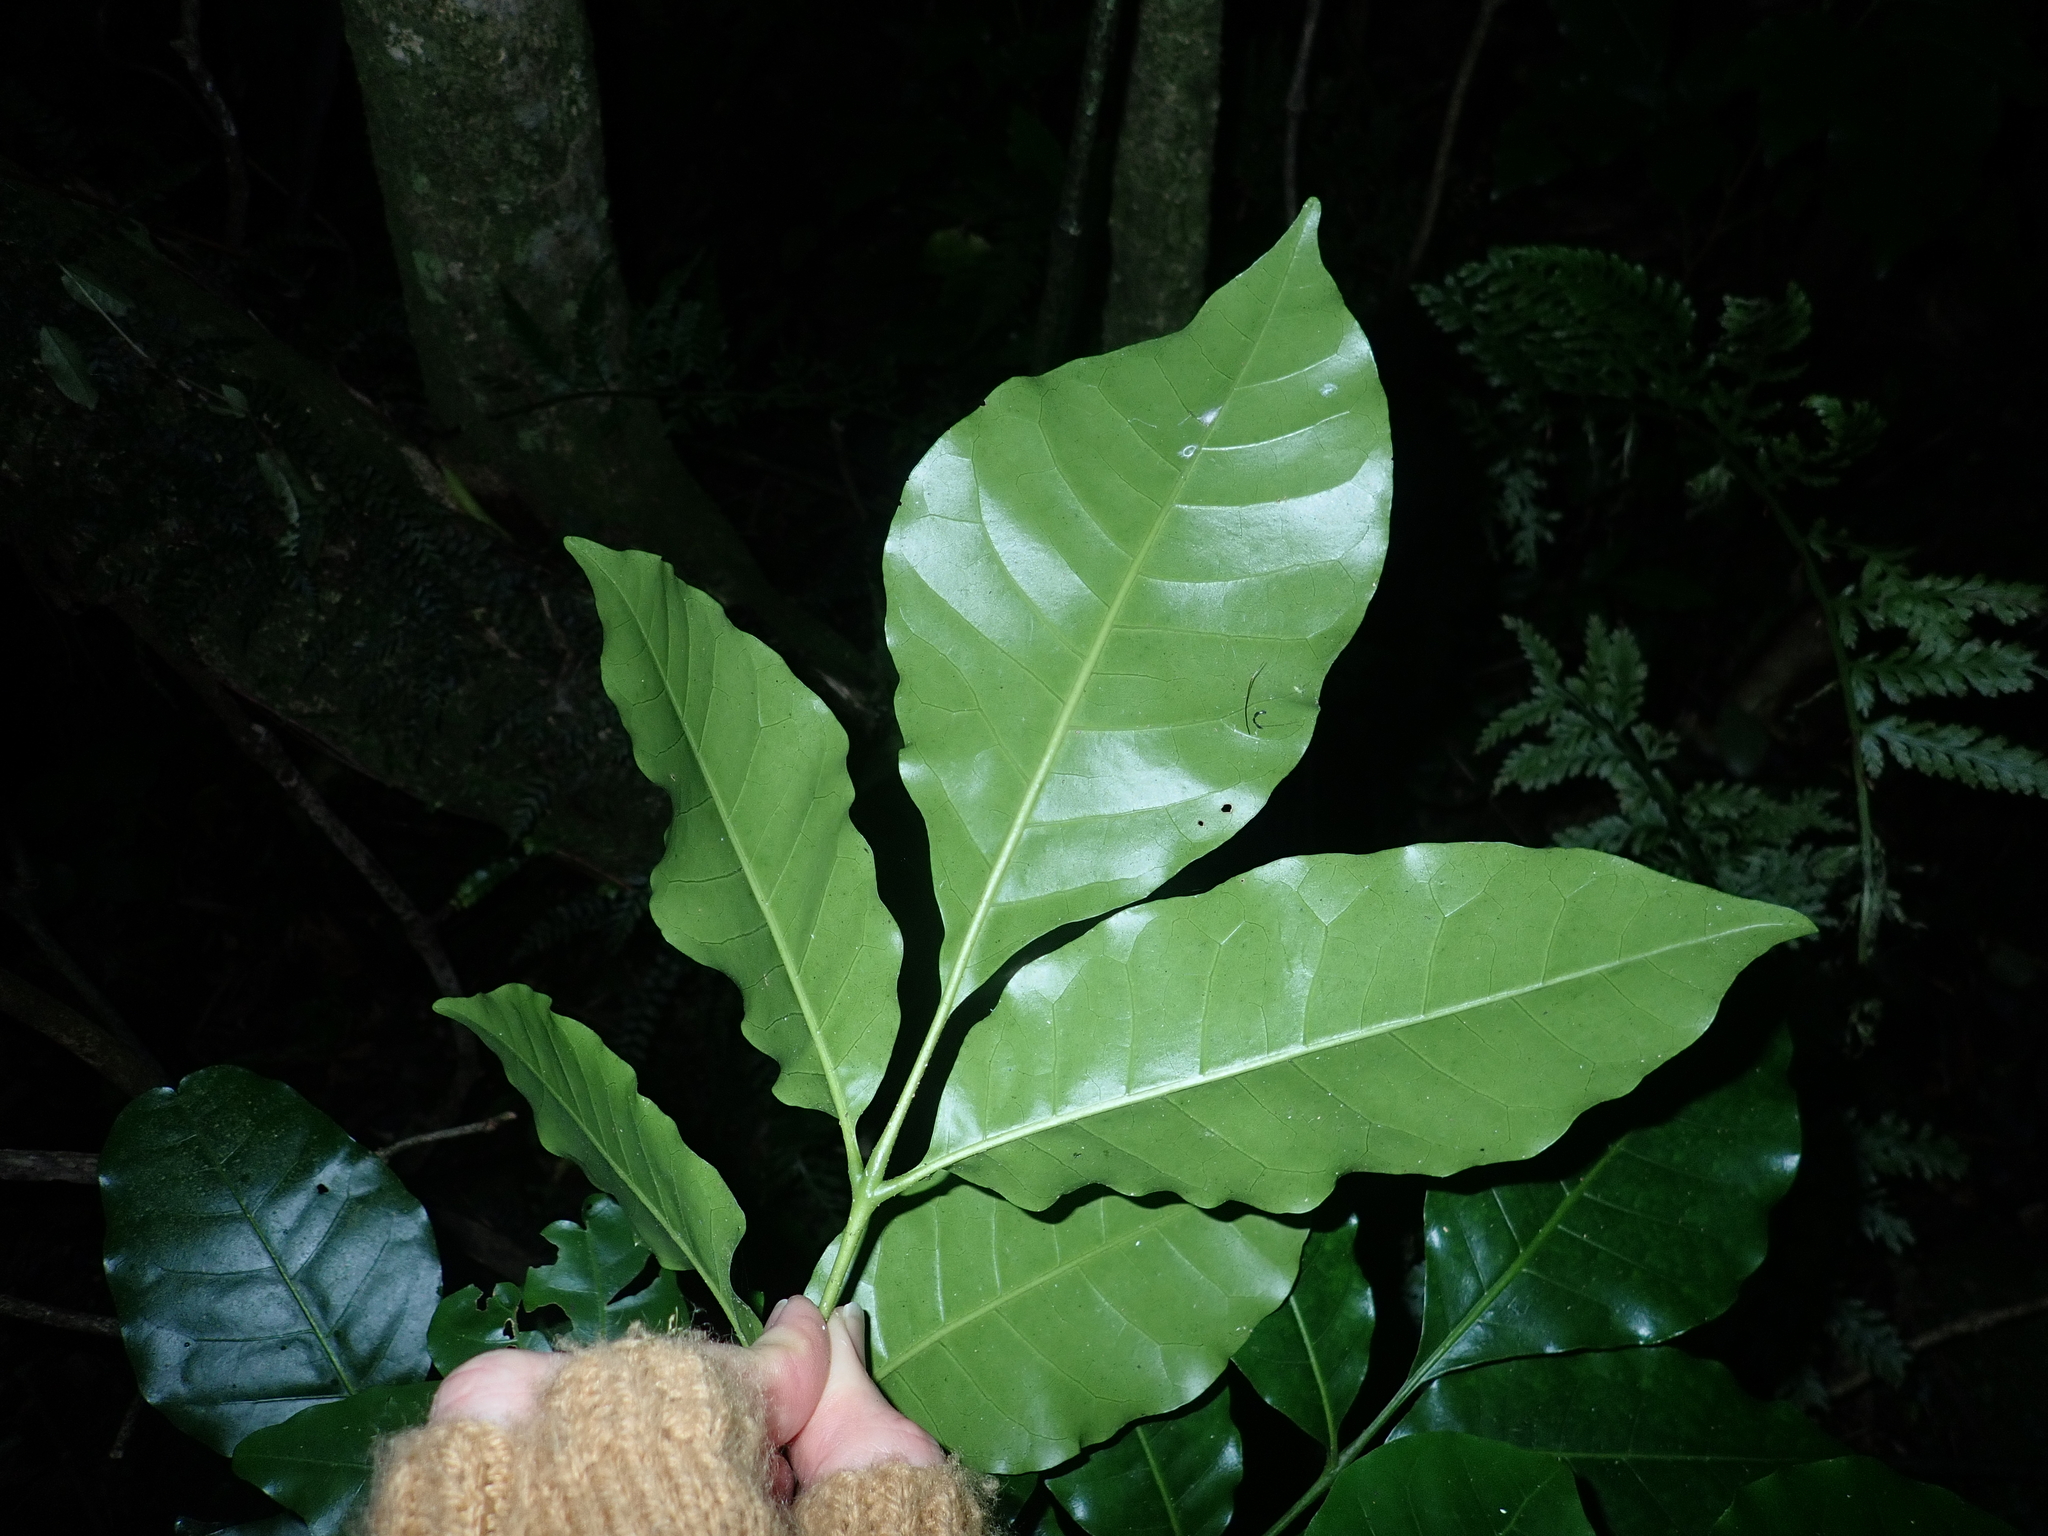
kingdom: Plantae
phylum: Tracheophyta
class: Magnoliopsida
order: Sapindales
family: Meliaceae
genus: Didymocheton
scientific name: Didymocheton spectabilis
